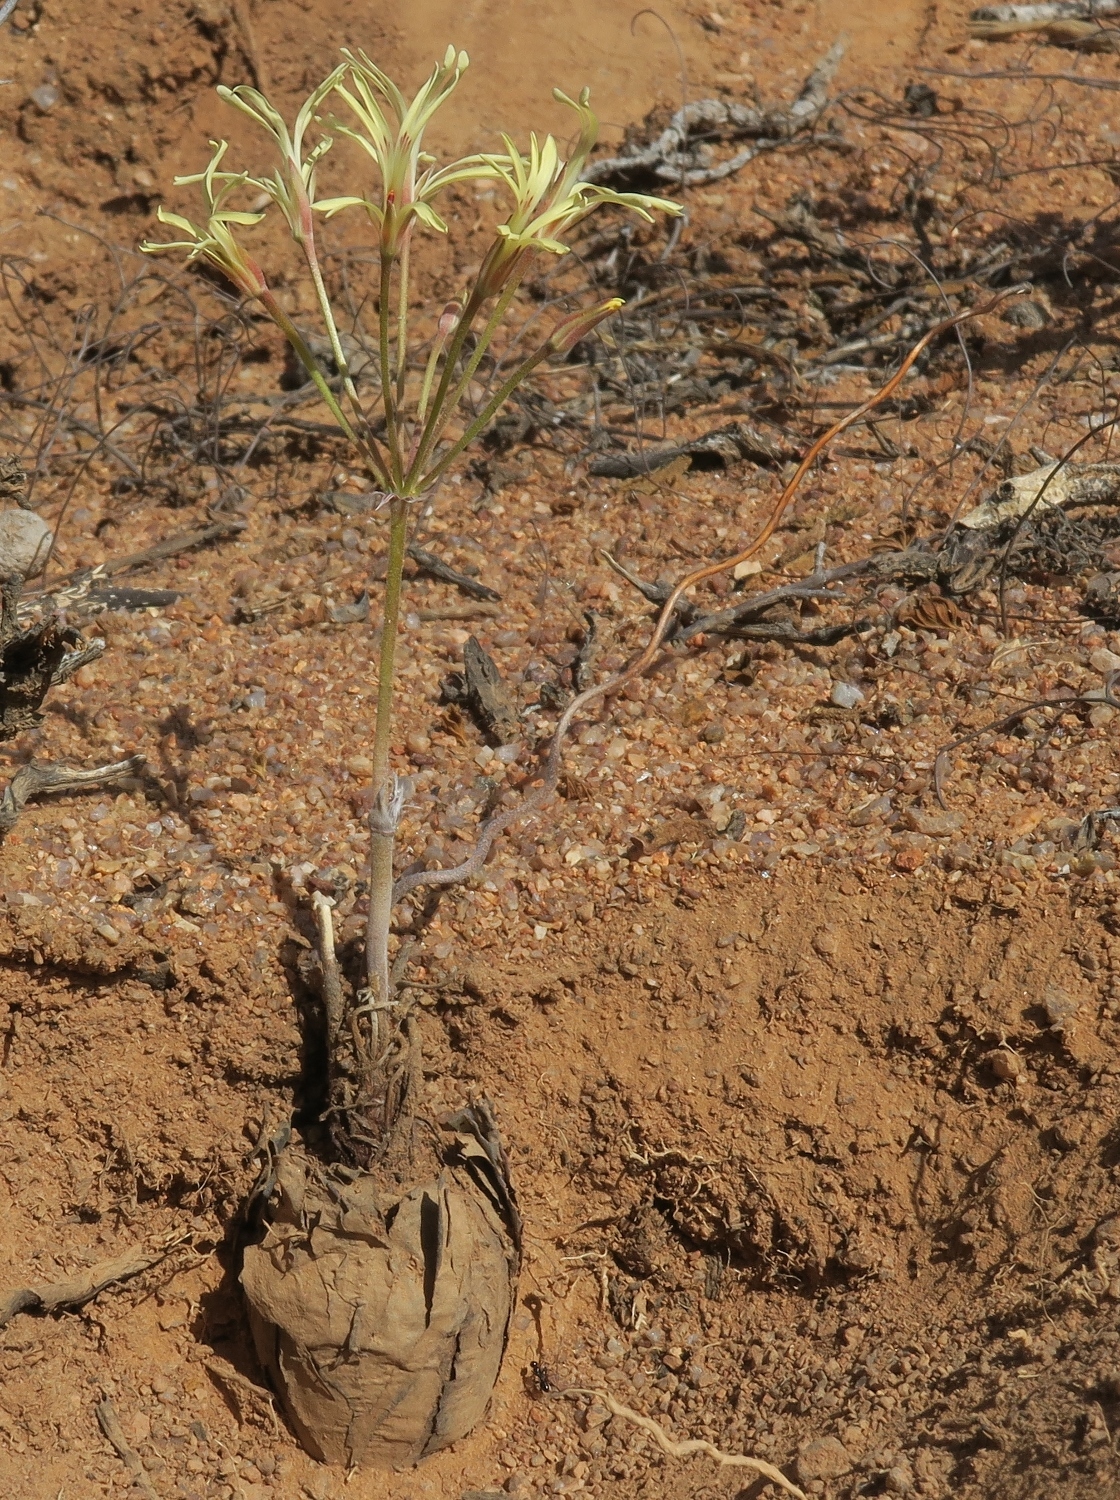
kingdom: Plantae
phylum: Tracheophyta
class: Magnoliopsida
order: Geraniales
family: Geraniaceae
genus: Pelargonium
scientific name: Pelargonium angustipetalum
